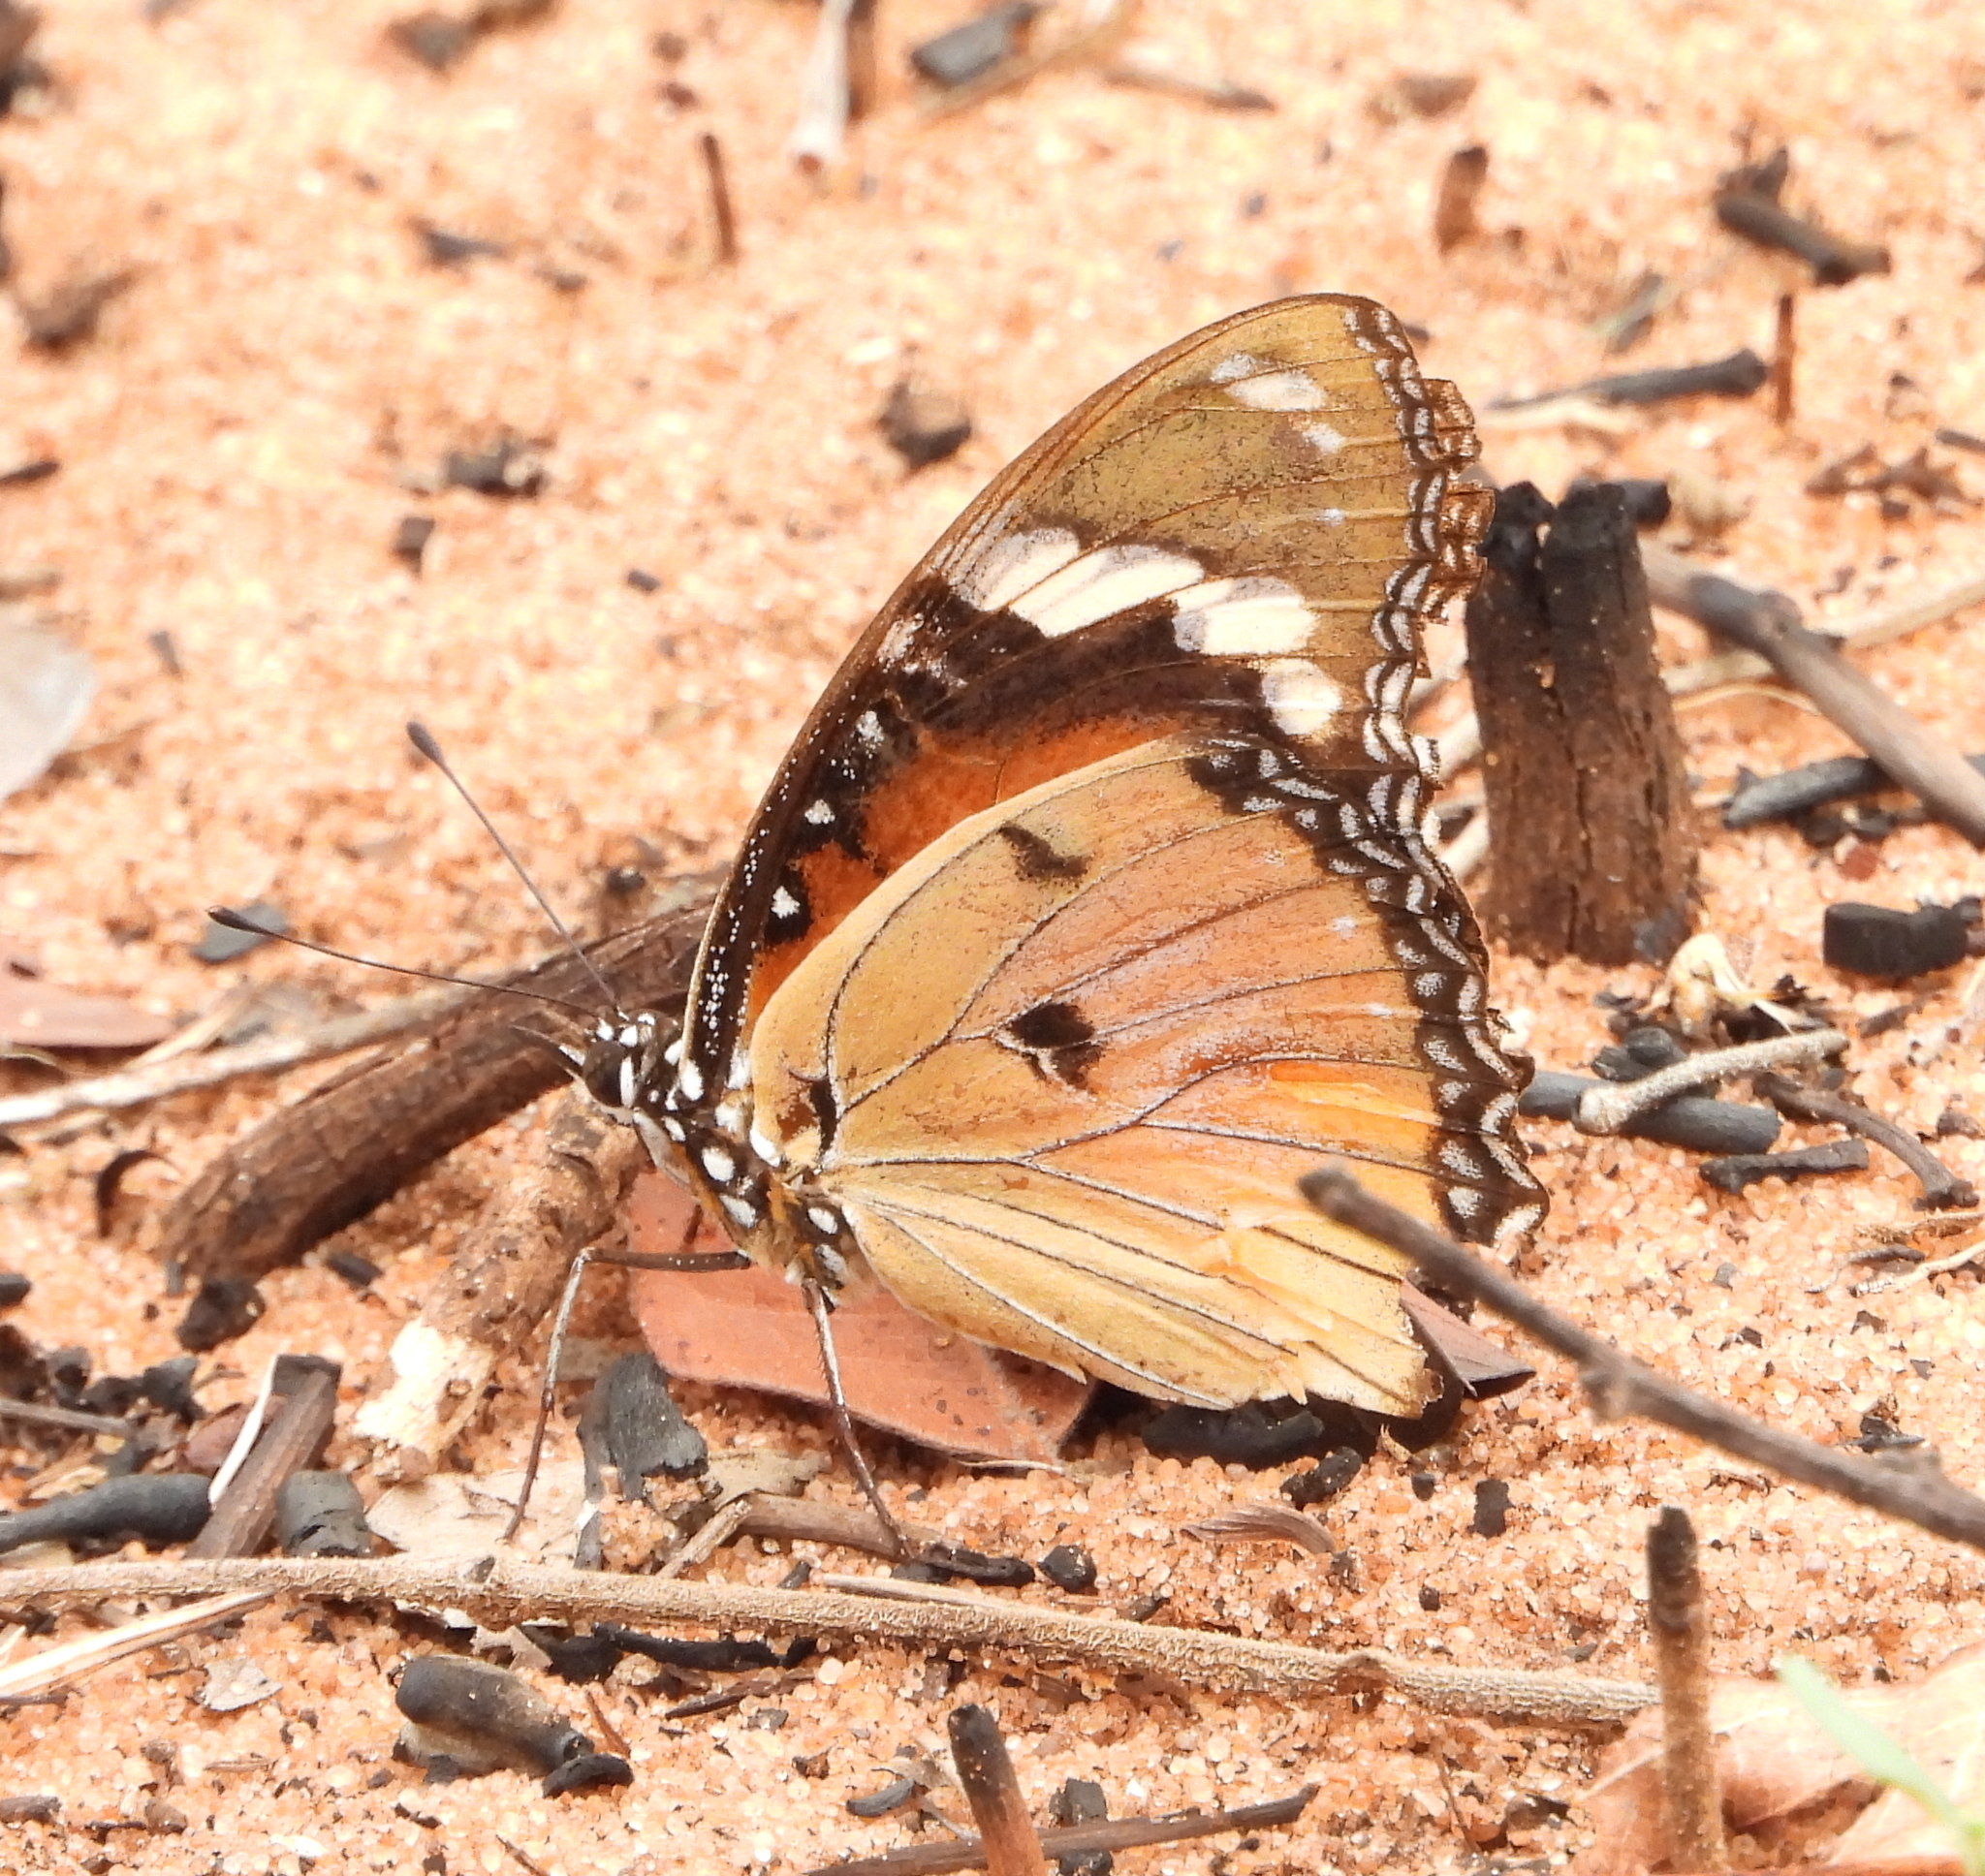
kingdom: Animalia
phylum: Arthropoda
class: Insecta
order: Lepidoptera
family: Nymphalidae
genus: Hypolimnas
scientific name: Hypolimnas misippus
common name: False plain tiger
